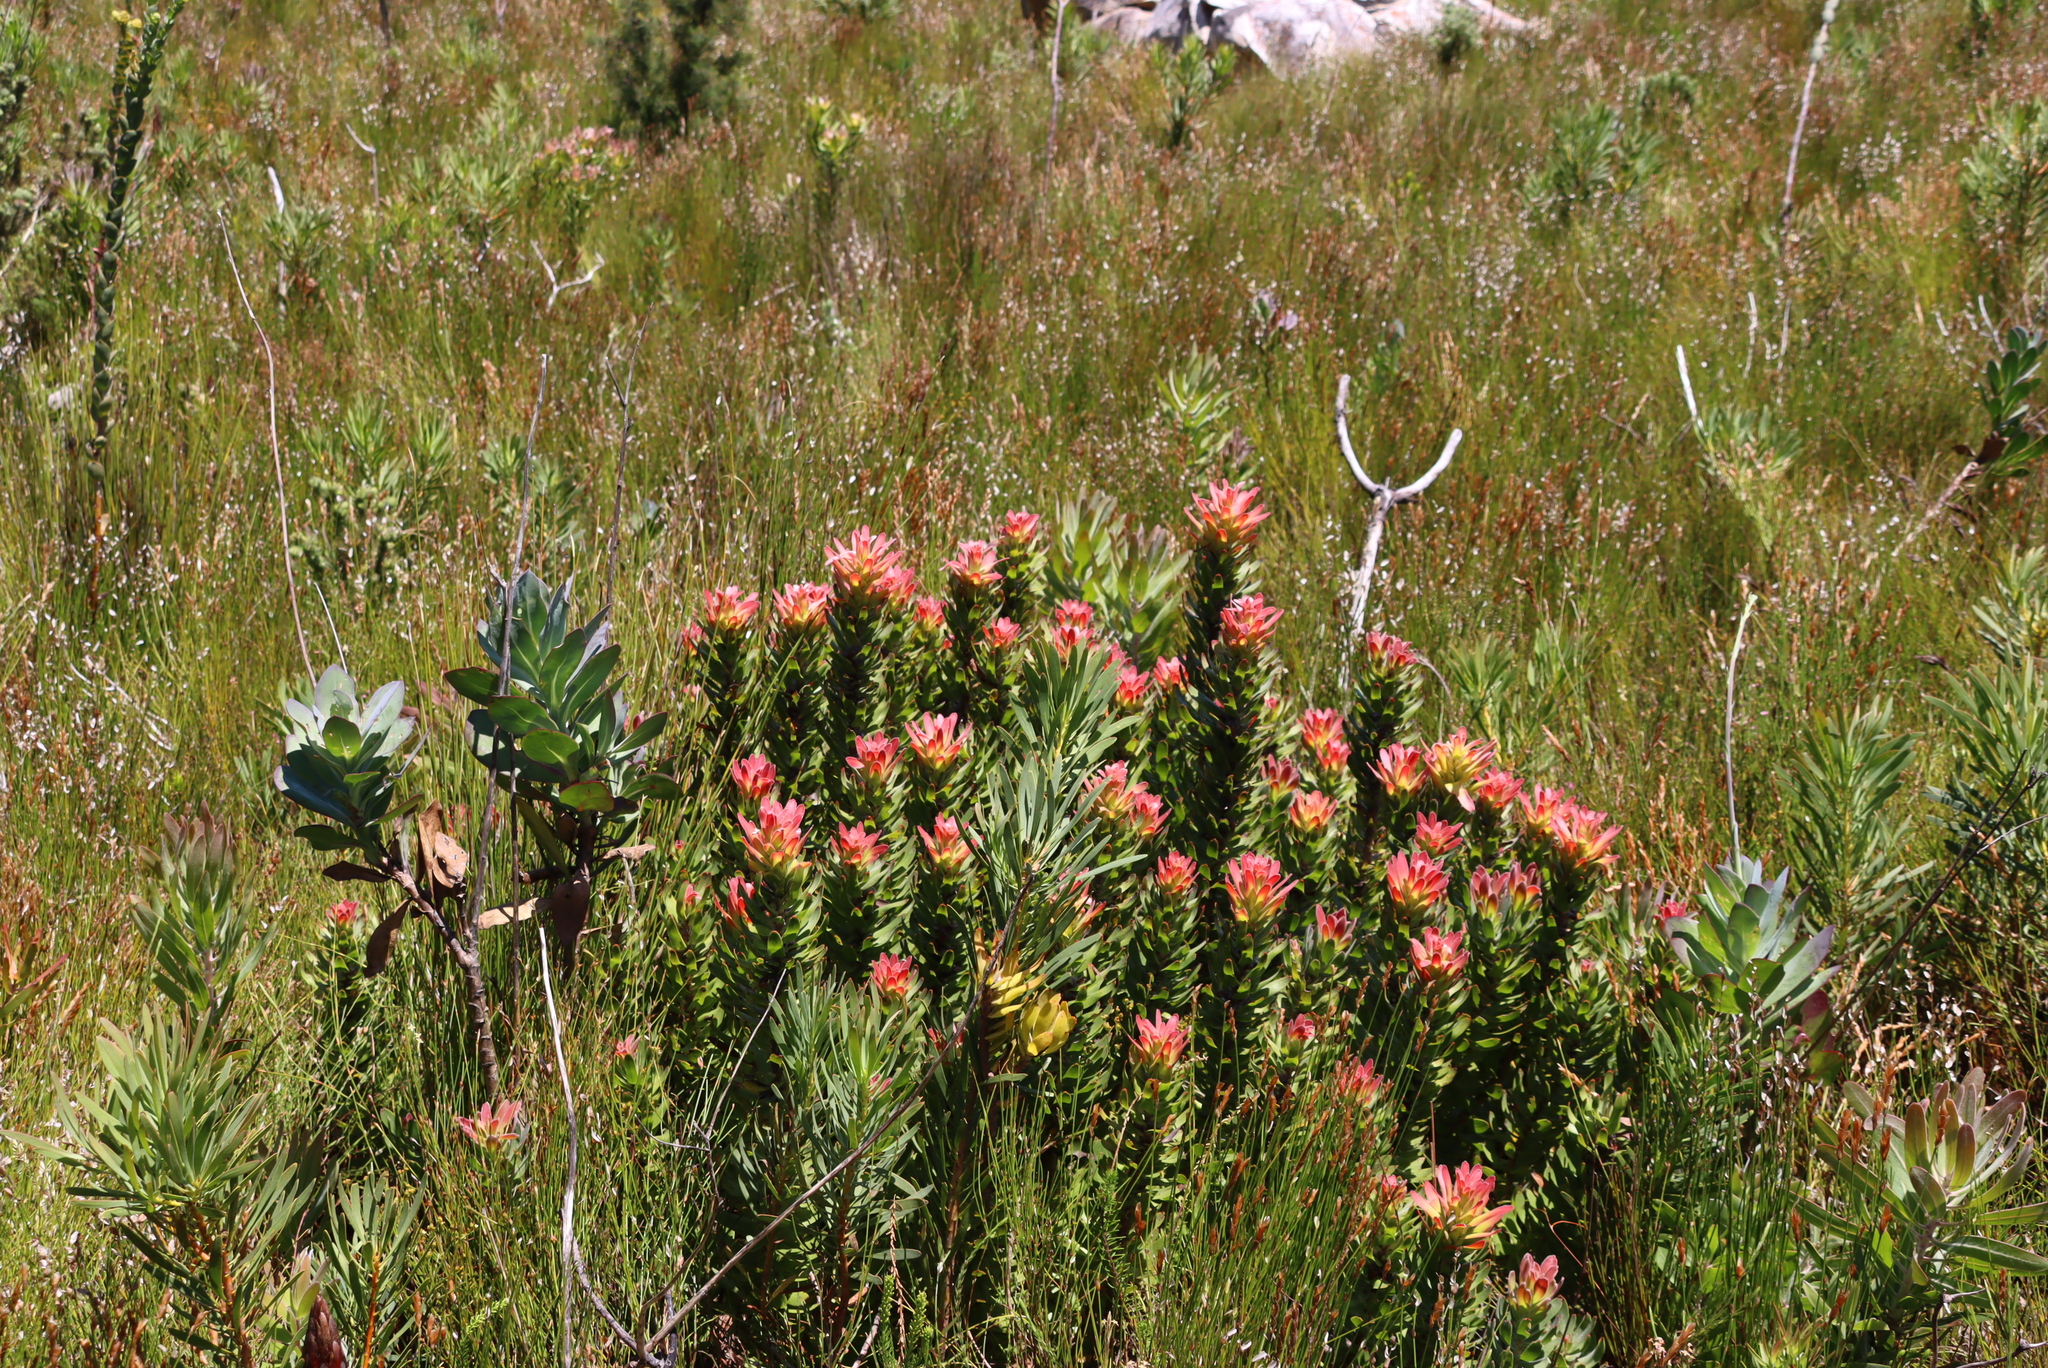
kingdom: Plantae
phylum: Tracheophyta
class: Magnoliopsida
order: Proteales
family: Proteaceae
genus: Mimetes
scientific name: Mimetes cucullatus
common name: Common pagoda
